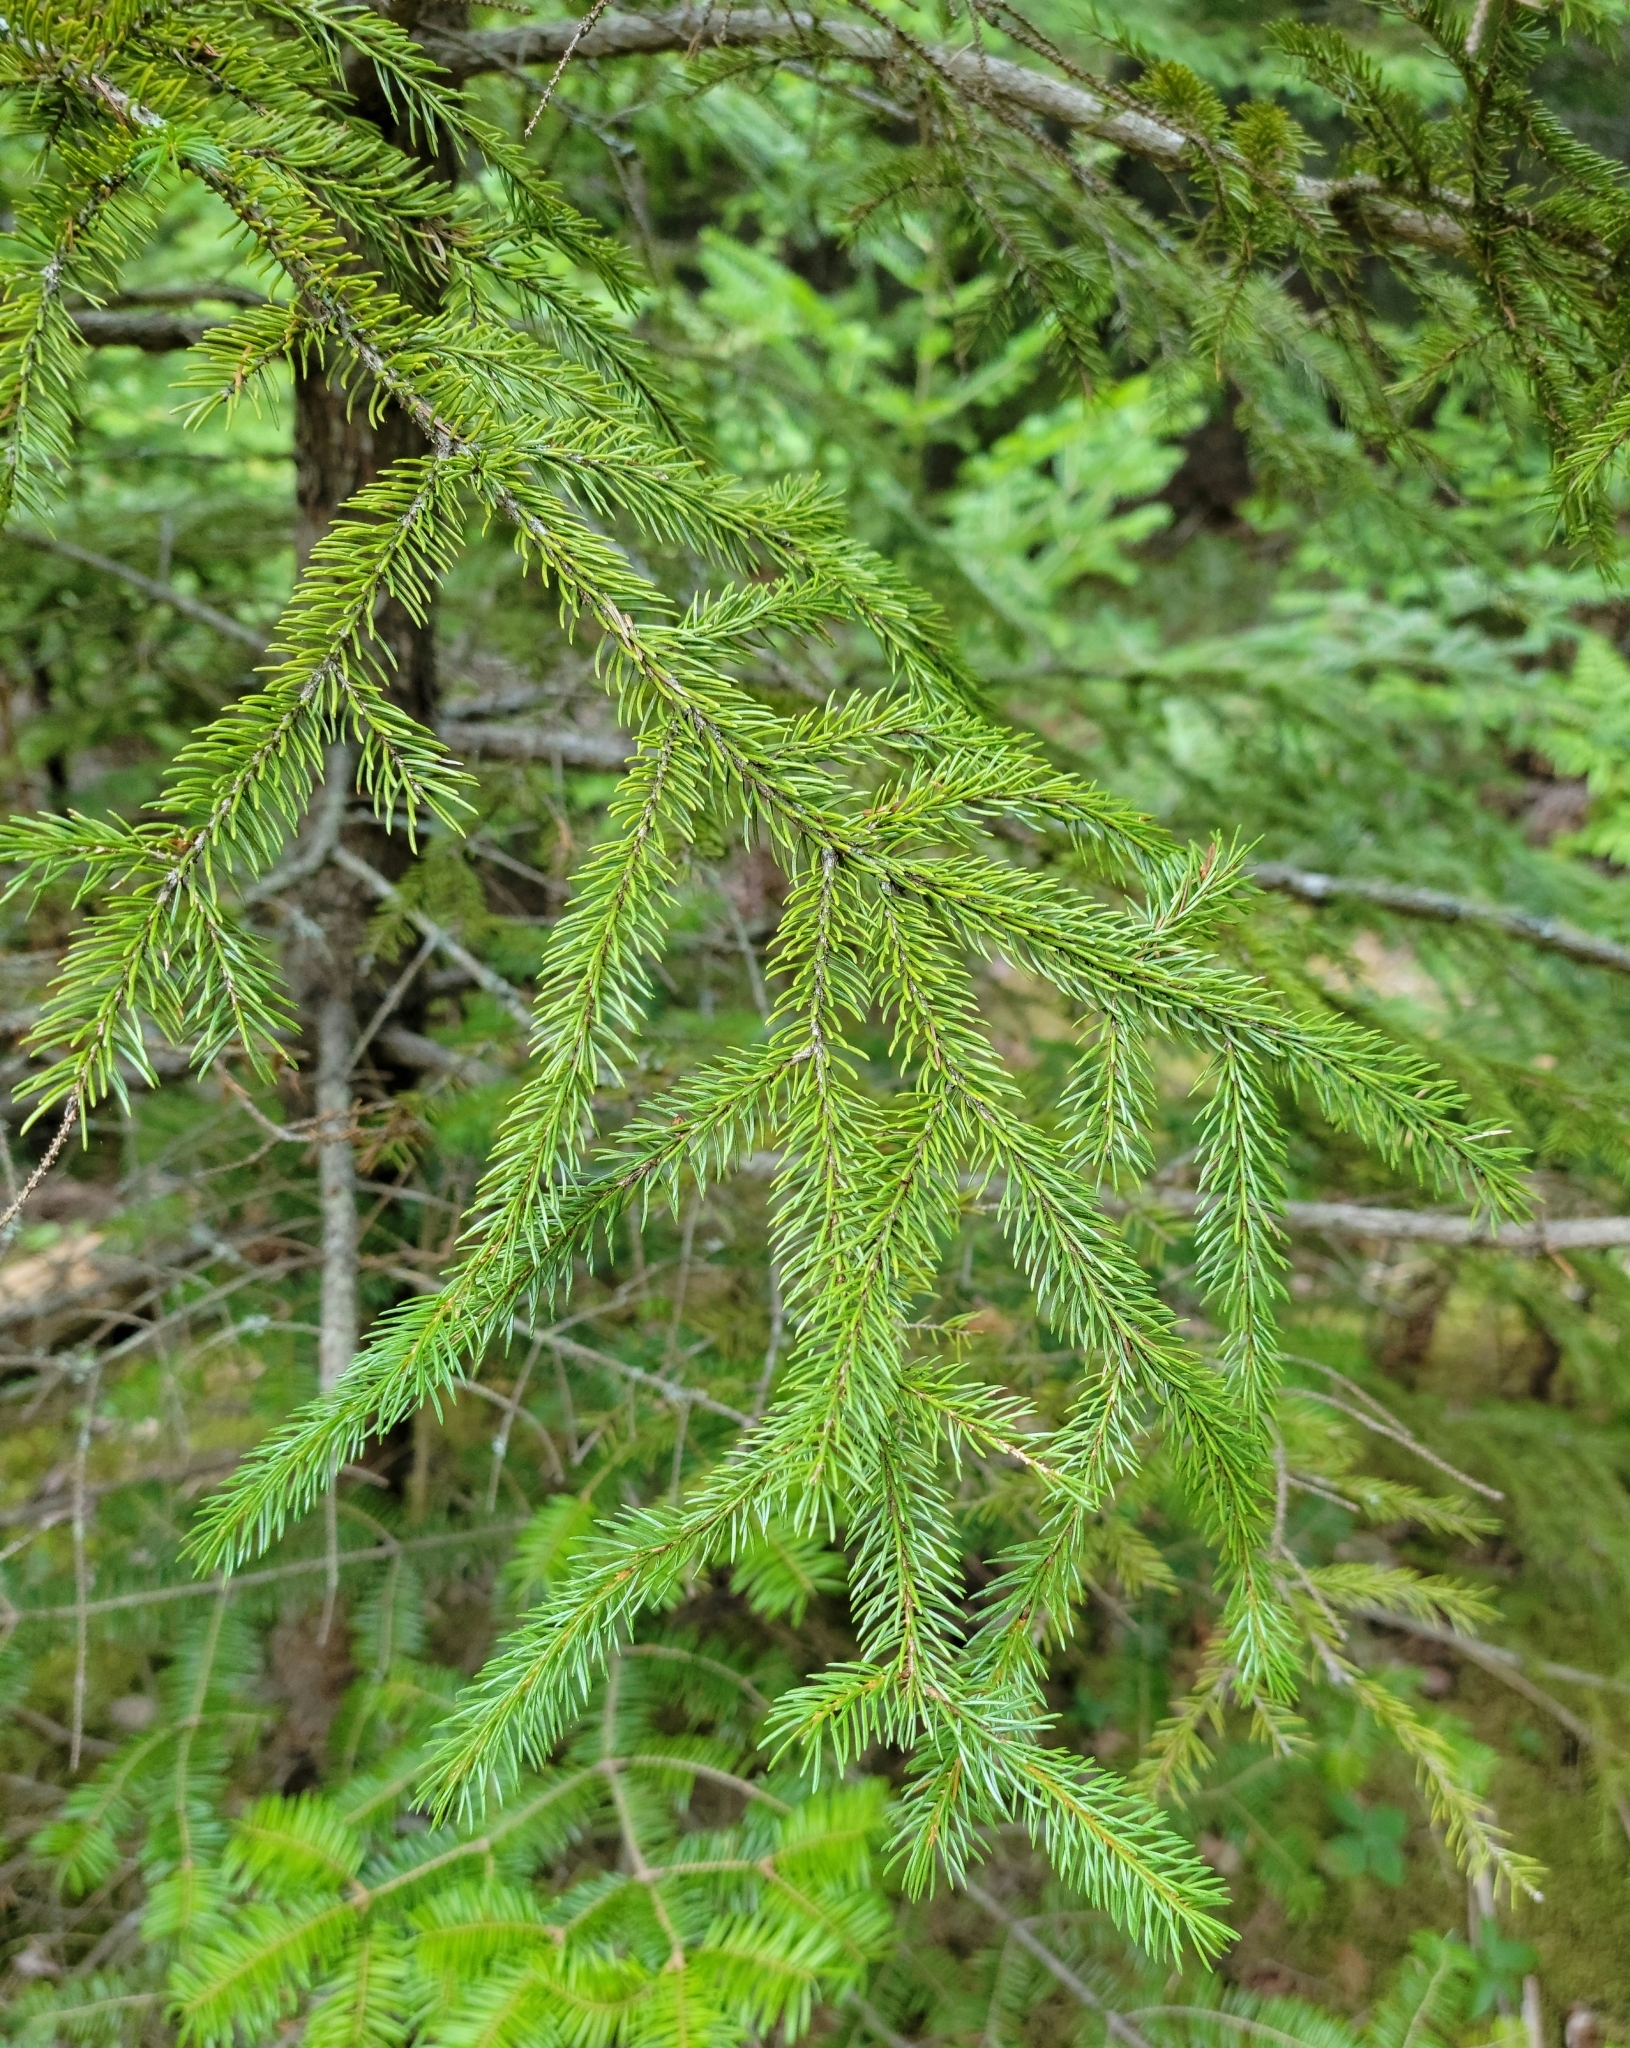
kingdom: Plantae
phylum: Tracheophyta
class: Pinopsida
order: Pinales
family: Pinaceae
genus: Picea
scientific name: Picea rubens
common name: Red spruce
